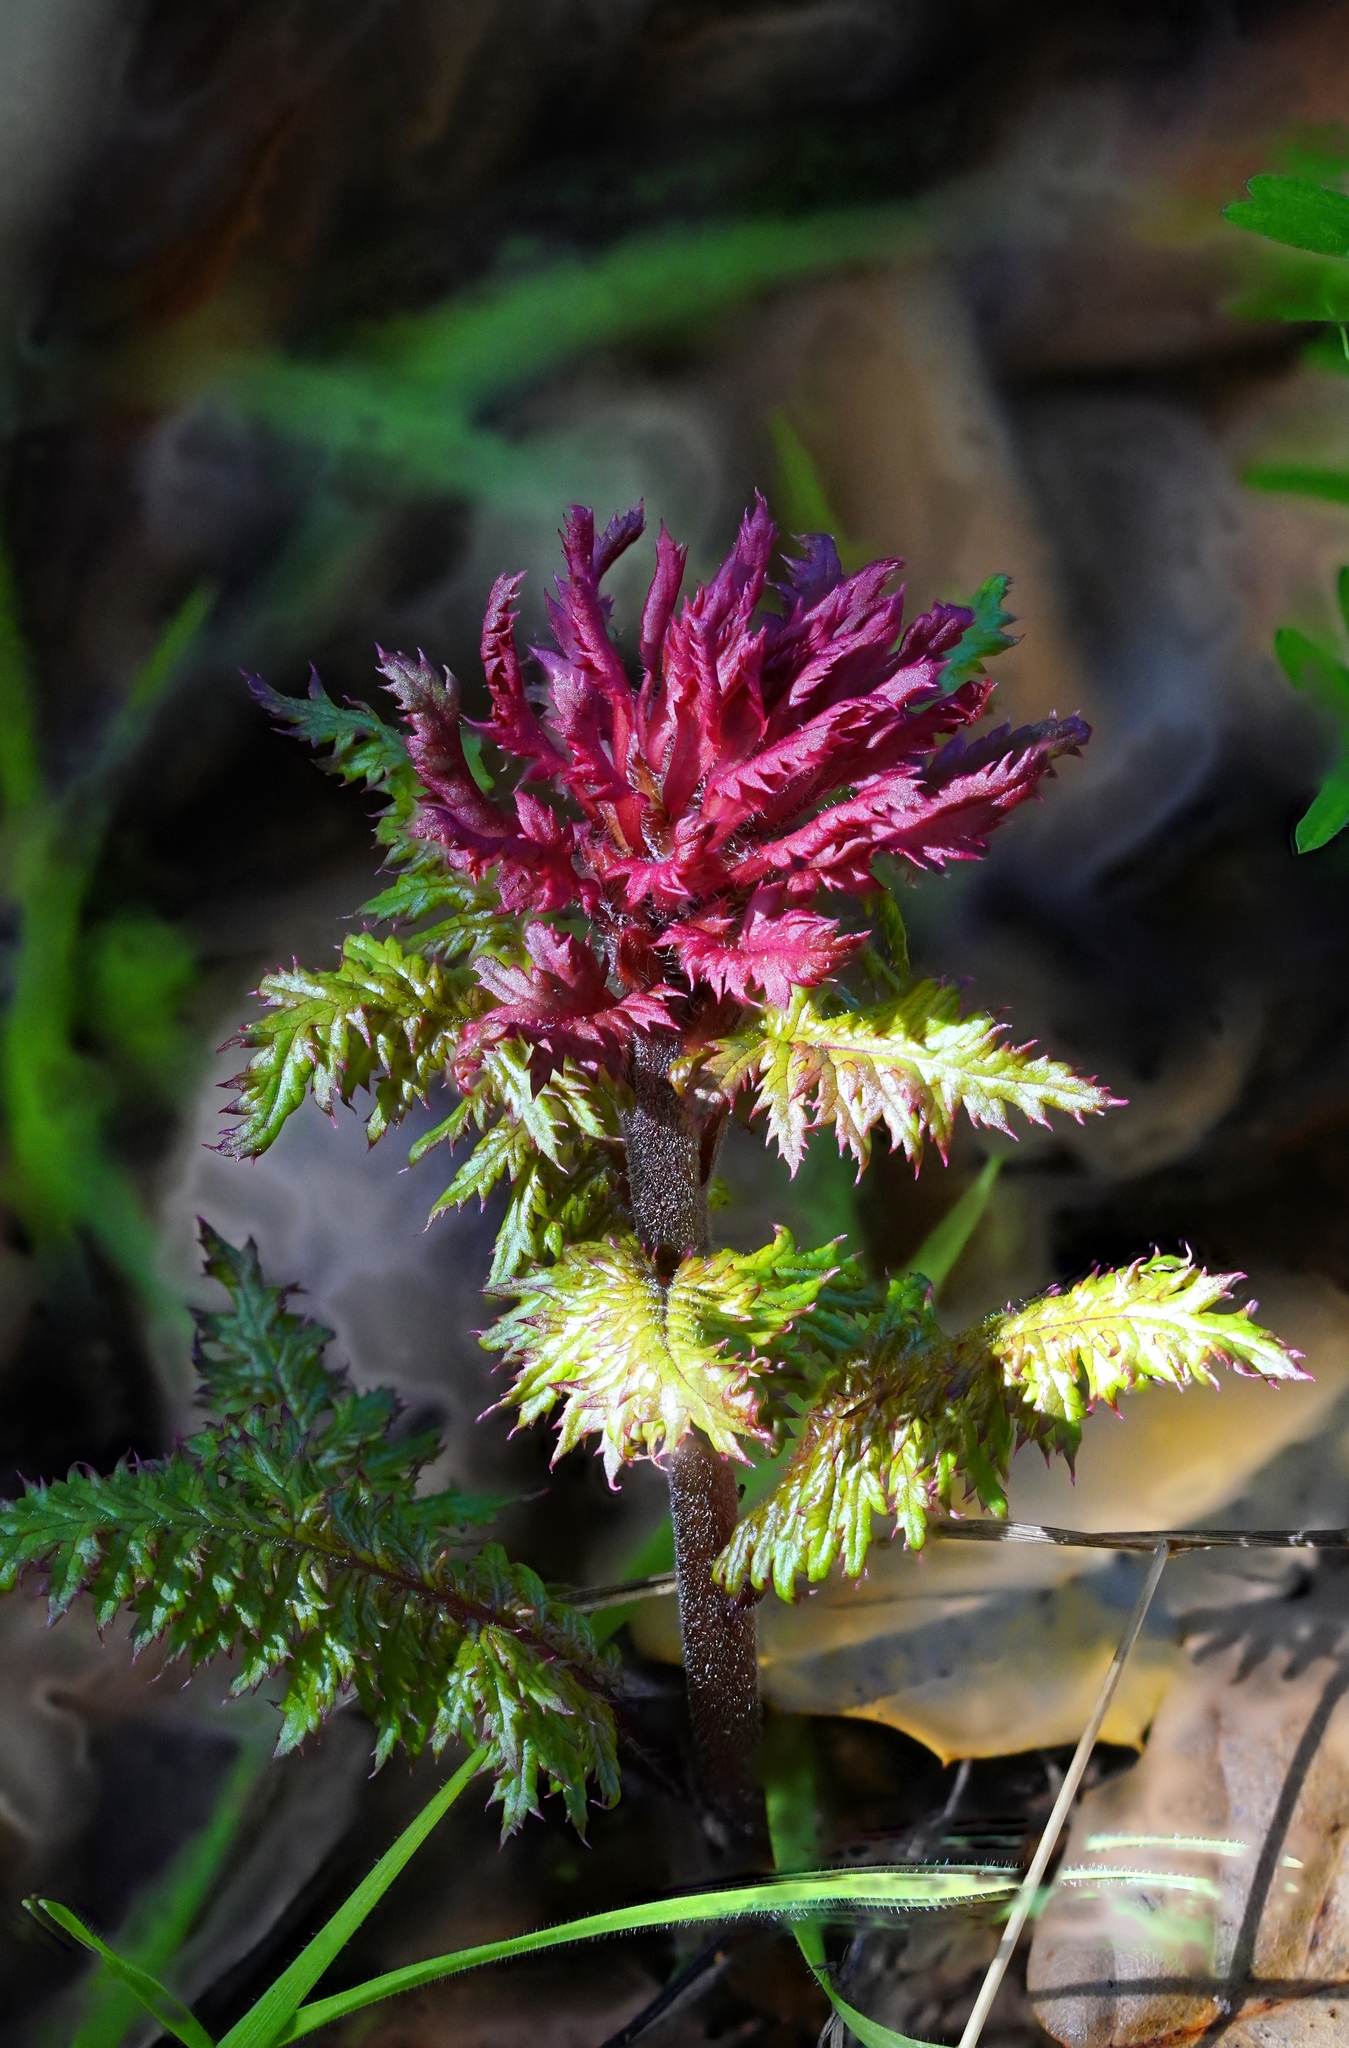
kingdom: Plantae
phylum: Tracheophyta
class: Magnoliopsida
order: Lamiales
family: Orobanchaceae
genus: Pedicularis
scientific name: Pedicularis densiflora
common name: Indian warrior
